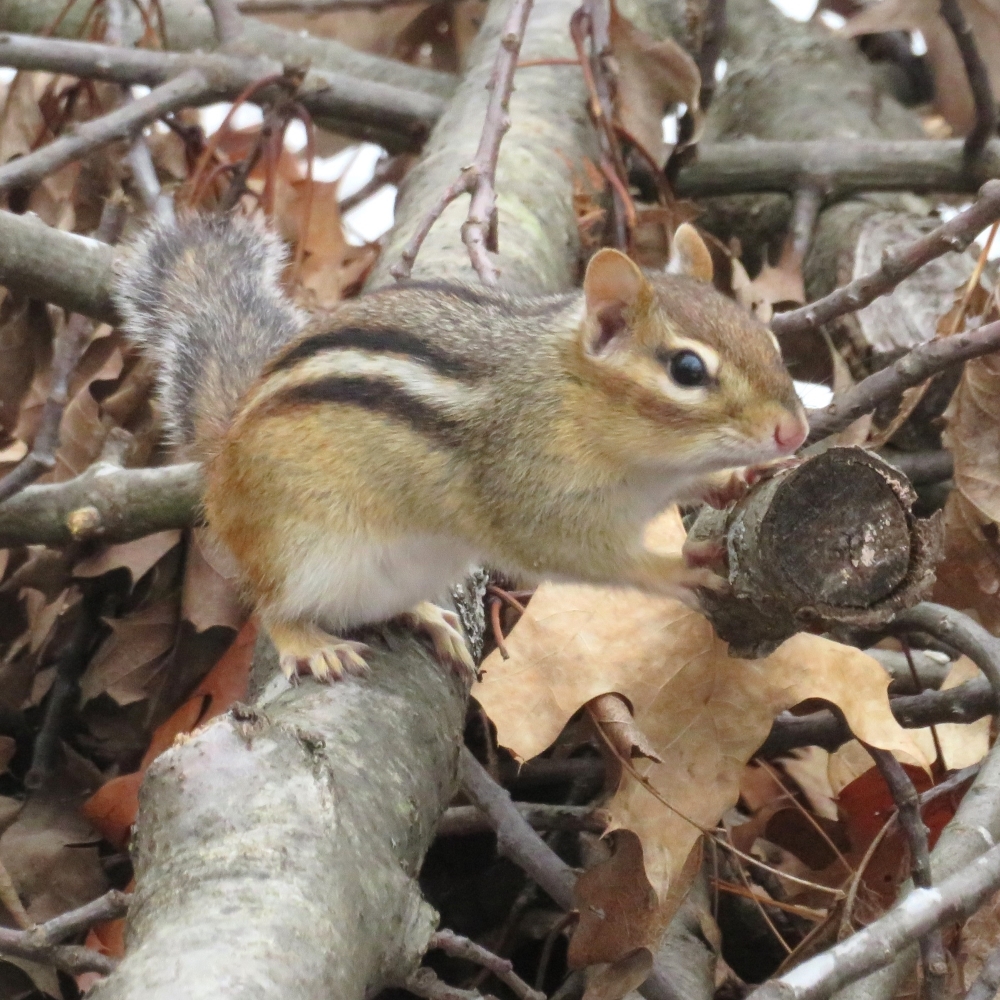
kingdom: Animalia
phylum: Chordata
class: Mammalia
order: Rodentia
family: Sciuridae
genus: Tamias
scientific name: Tamias striatus
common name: Eastern chipmunk
